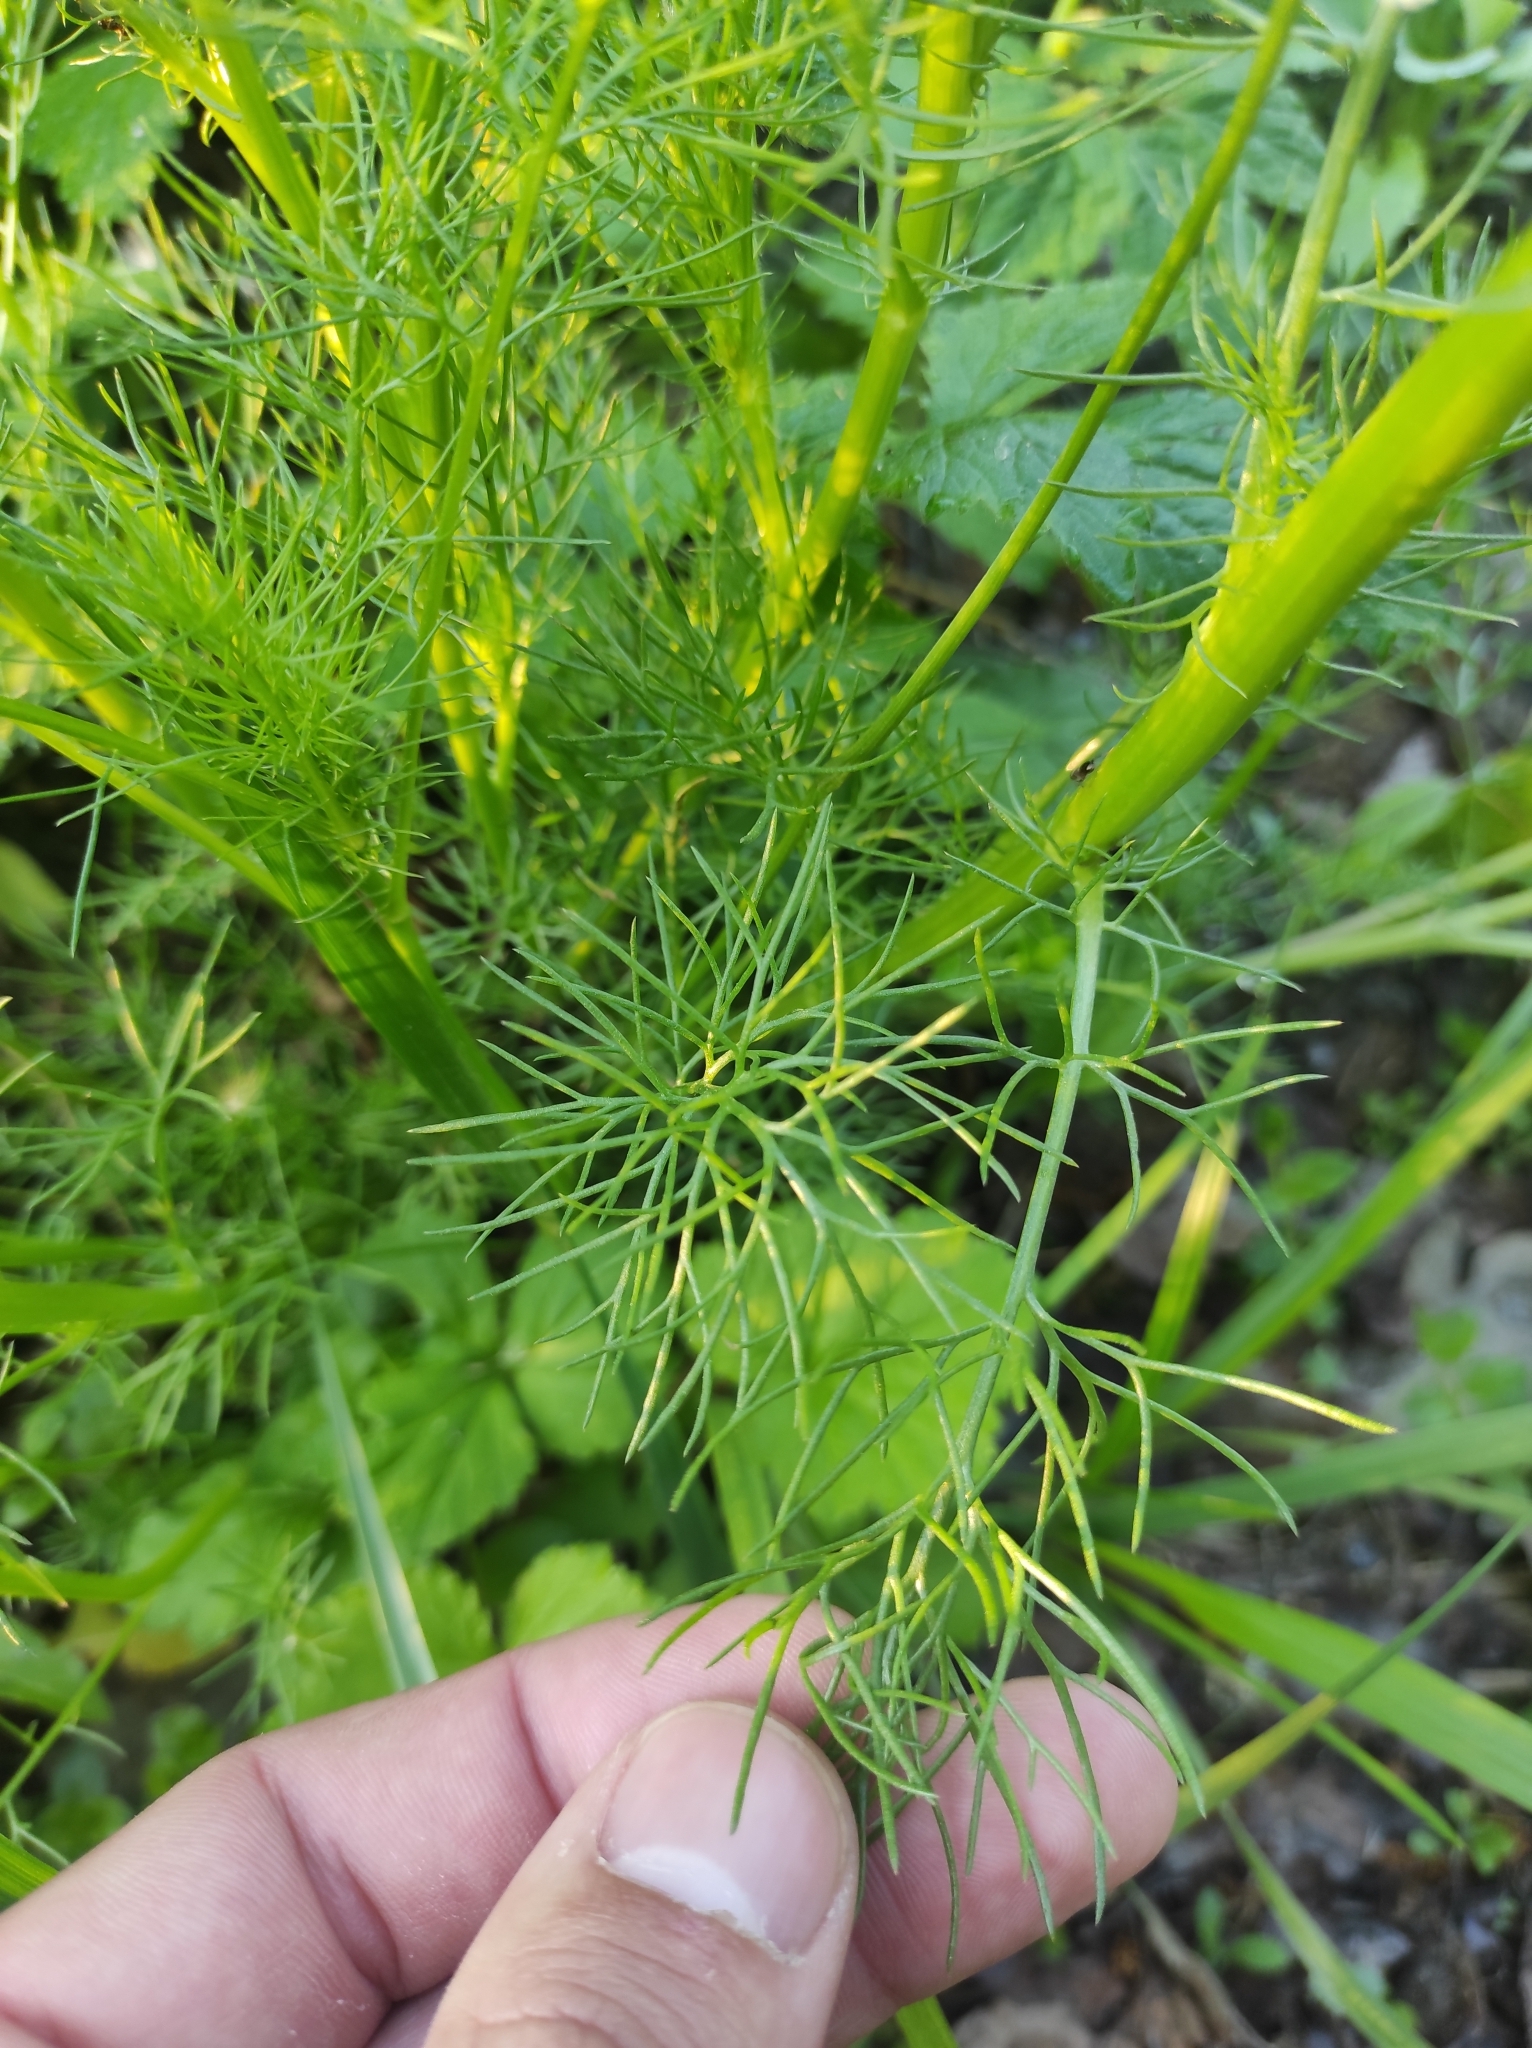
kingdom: Plantae
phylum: Tracheophyta
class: Magnoliopsida
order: Asterales
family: Asteraceae
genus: Tripleurospermum
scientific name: Tripleurospermum inodorum
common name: Scentless mayweed
